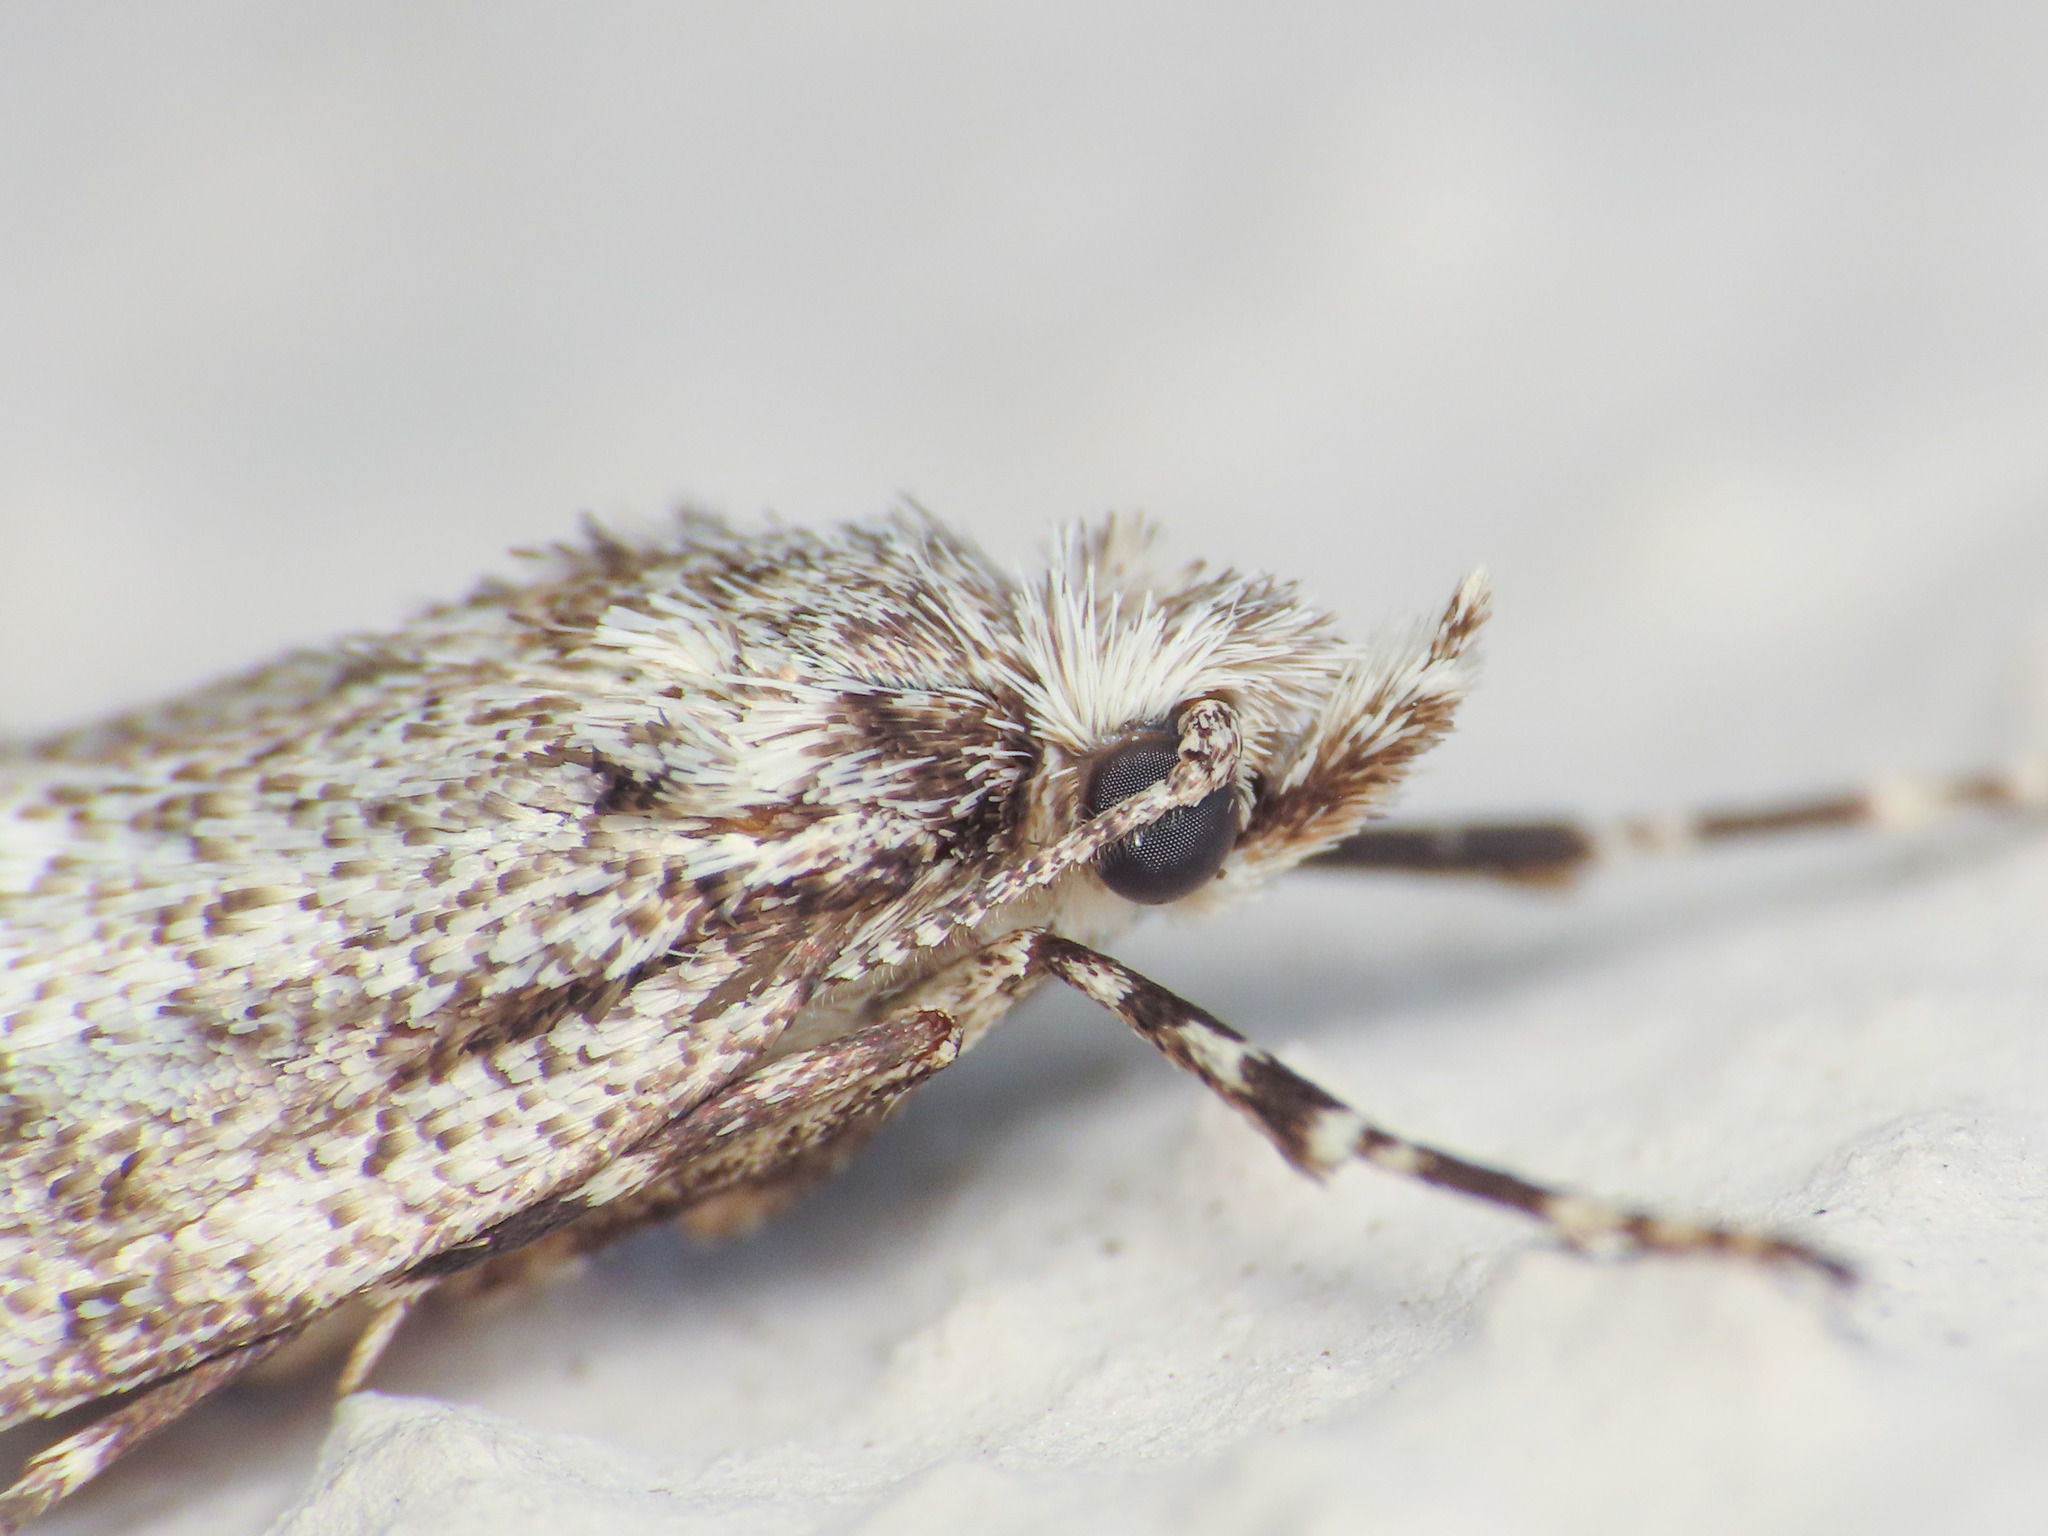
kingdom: Animalia
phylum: Arthropoda
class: Insecta
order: Lepidoptera
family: Lypusidae
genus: Diurnea
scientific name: Diurnea fagella
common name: March tubic
